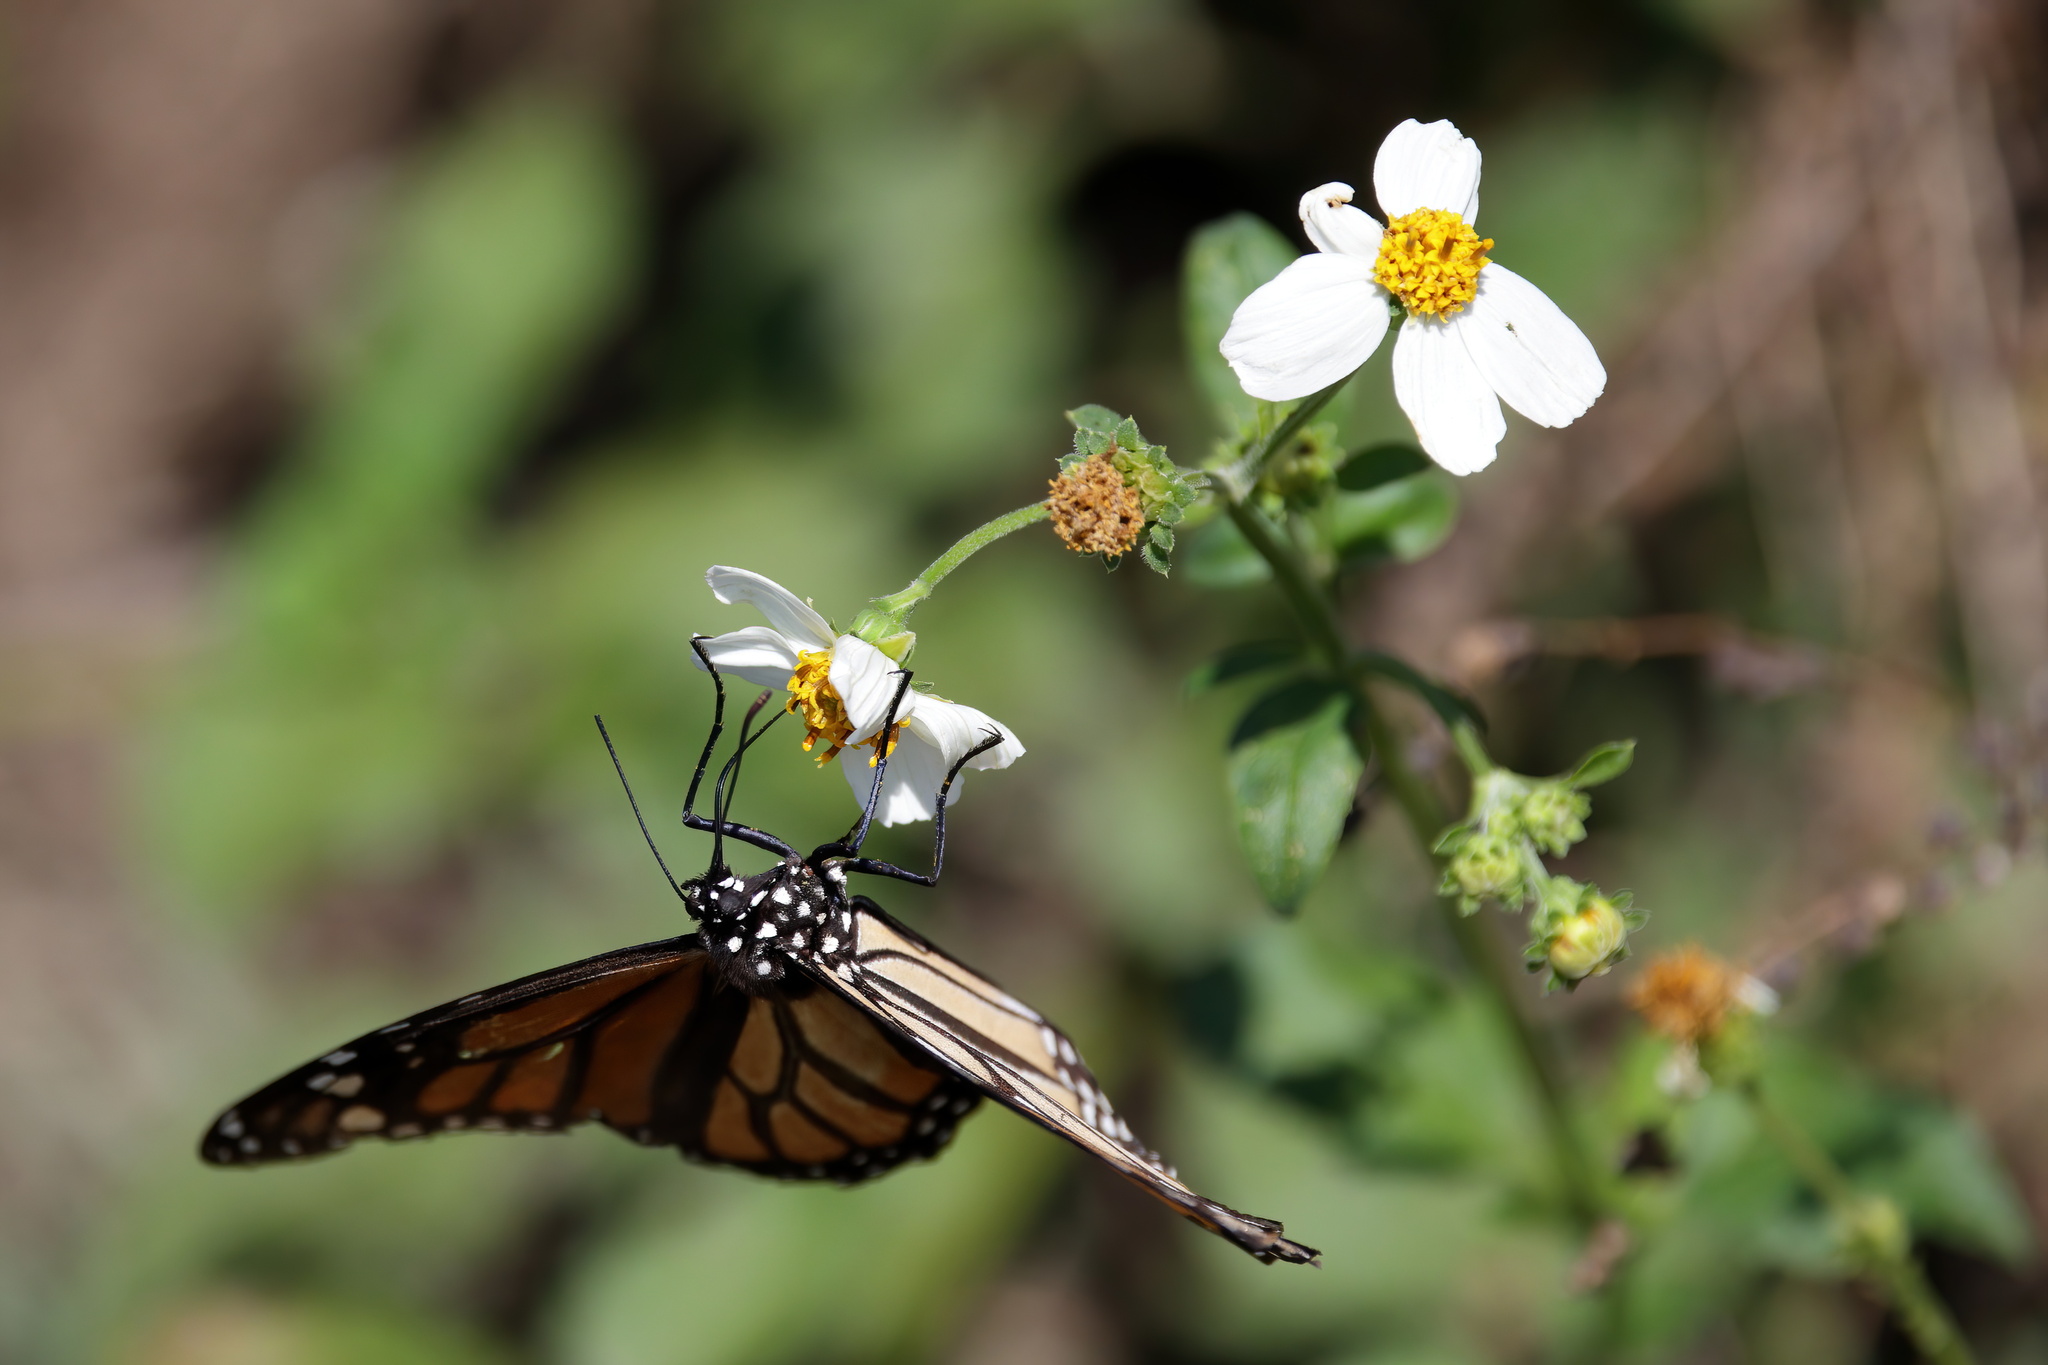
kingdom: Animalia
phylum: Arthropoda
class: Insecta
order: Lepidoptera
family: Nymphalidae
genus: Danaus
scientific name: Danaus plexippus
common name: Monarch
